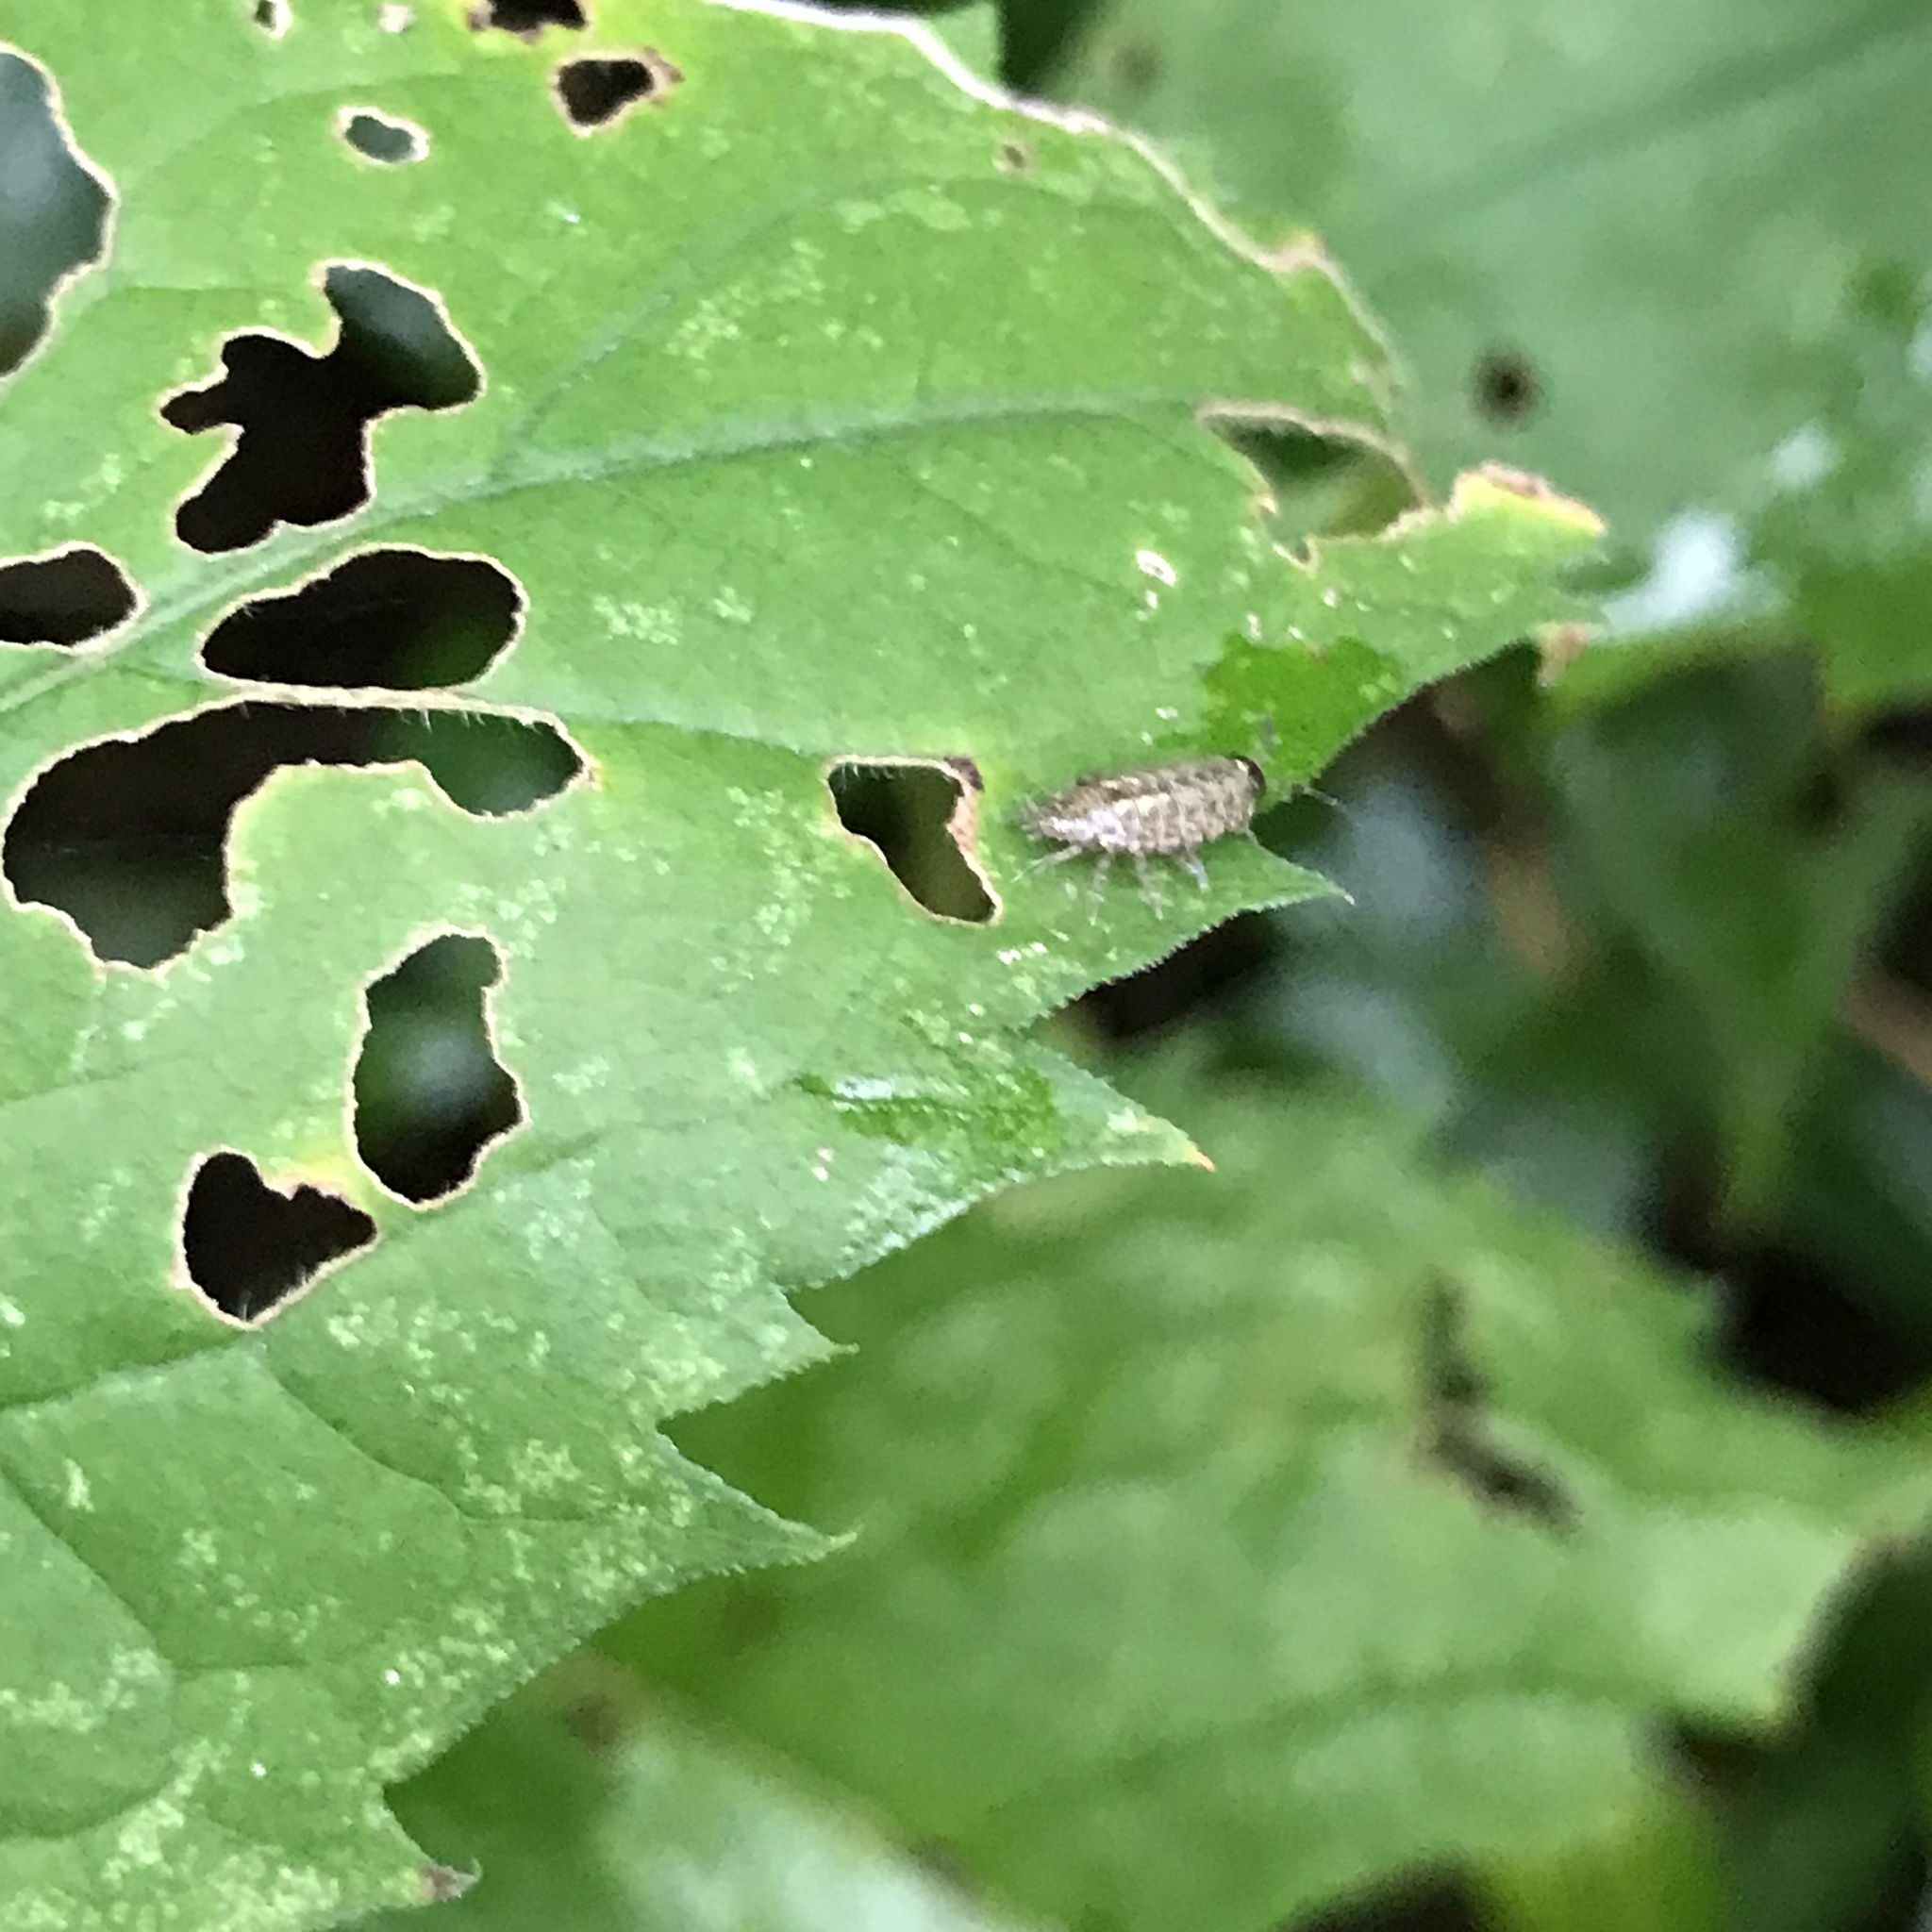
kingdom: Animalia
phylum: Arthropoda
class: Malacostraca
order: Isopoda
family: Philosciidae
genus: Philoscia
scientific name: Philoscia muscorum
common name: Common striped woodlouse
